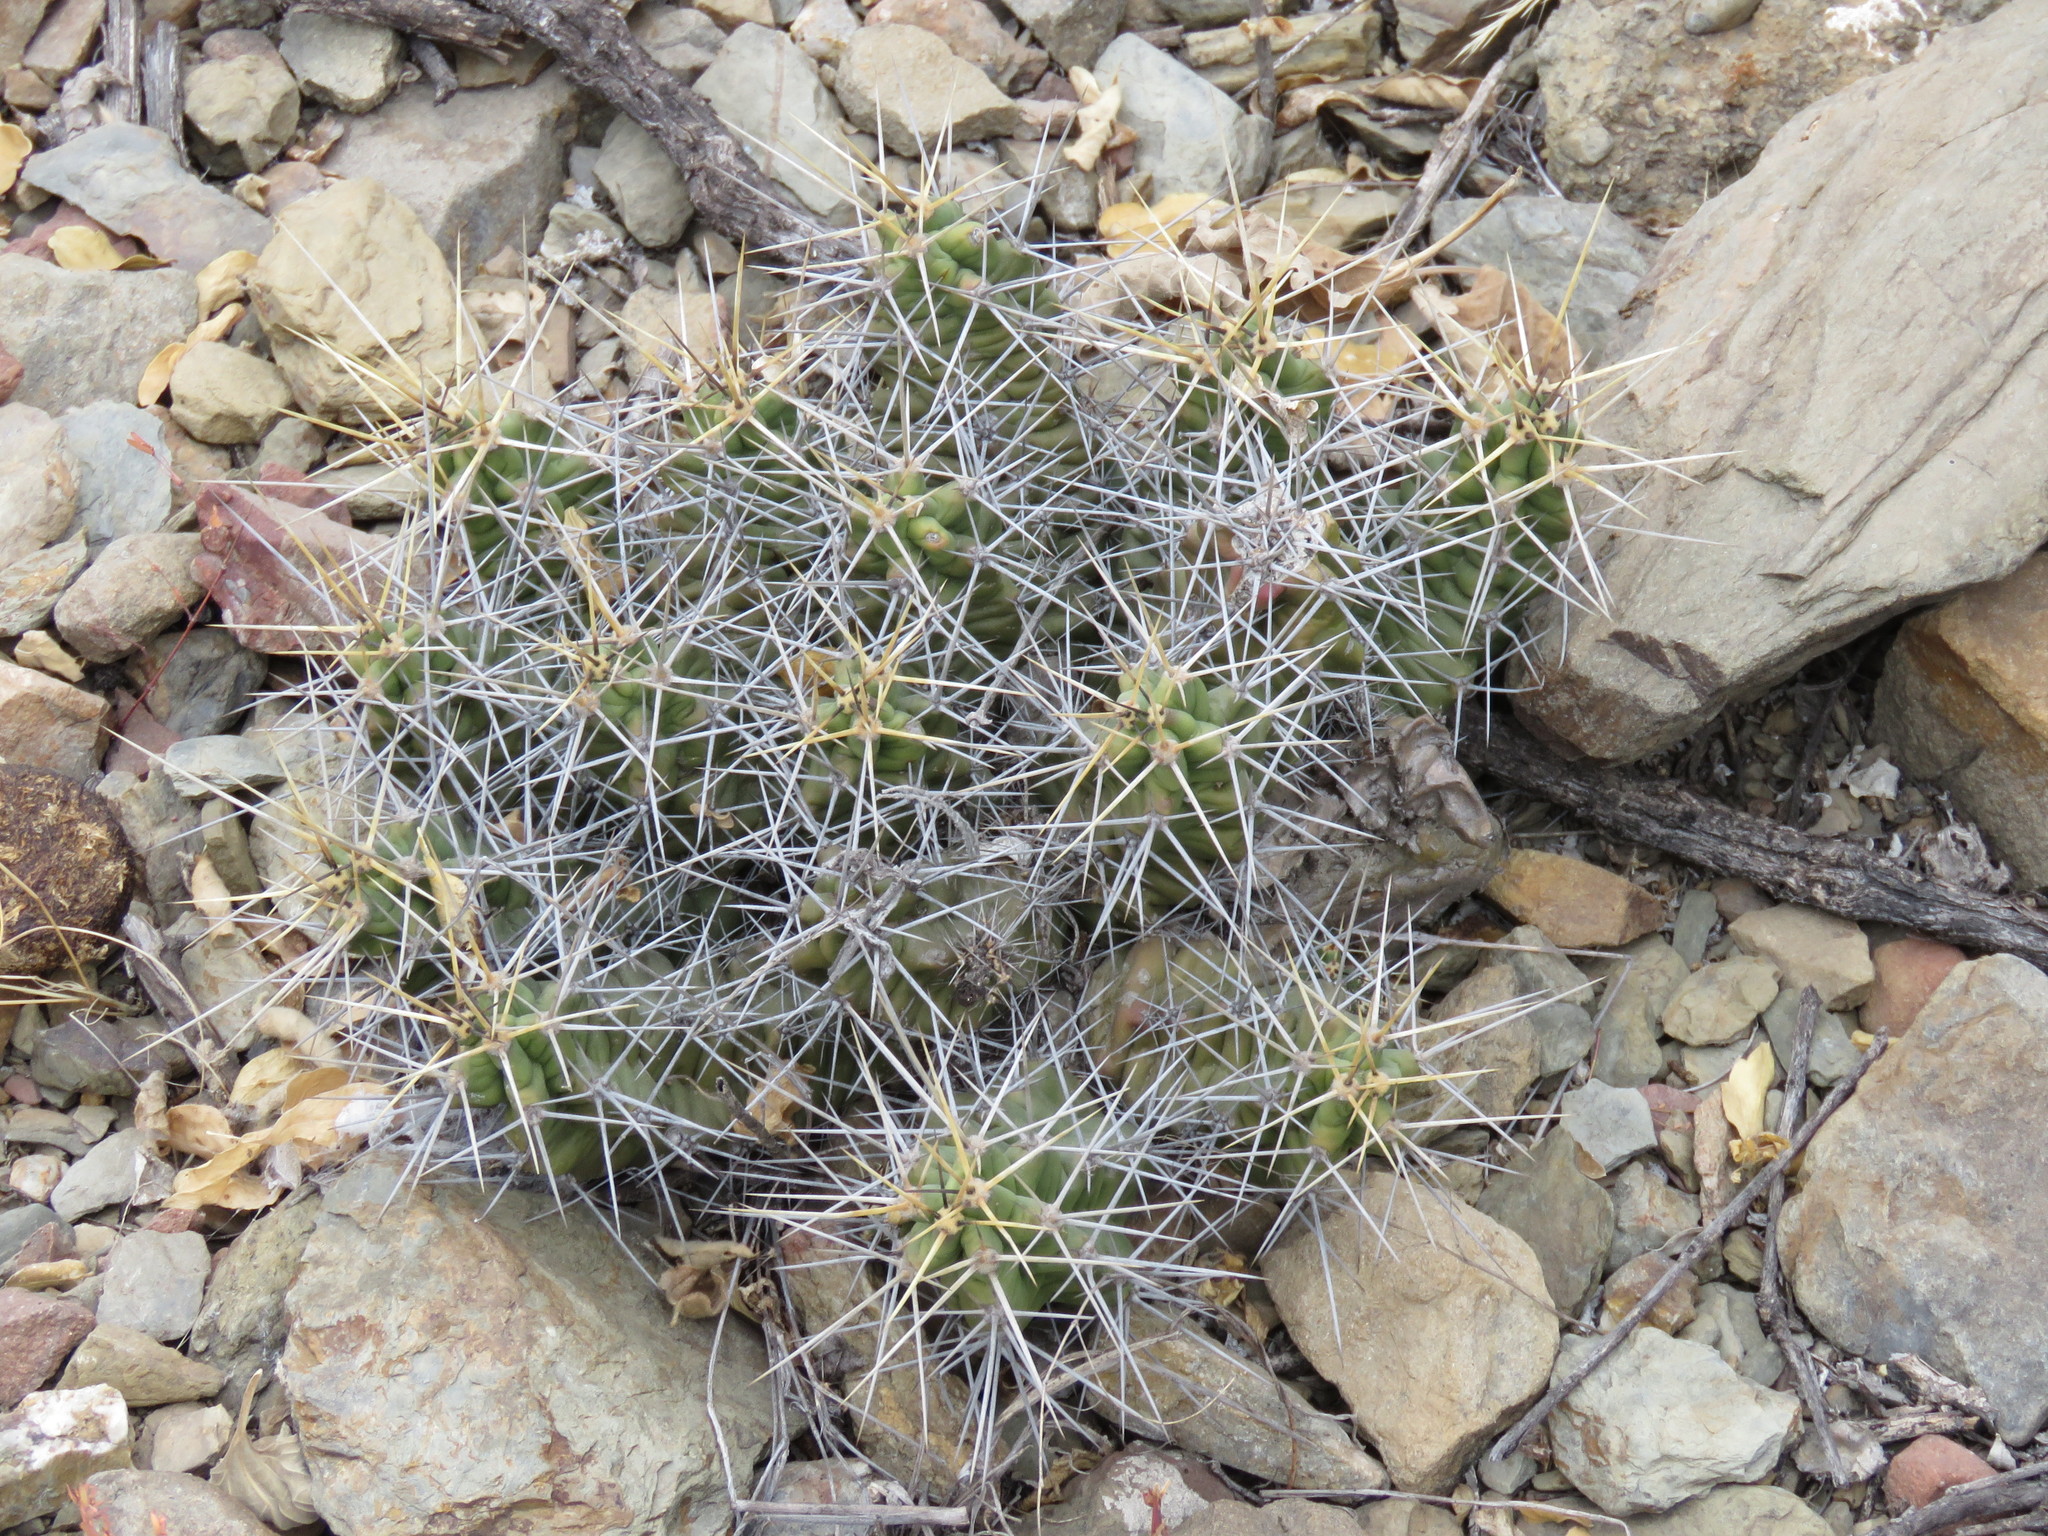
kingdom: Plantae
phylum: Tracheophyta
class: Magnoliopsida
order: Caryophyllales
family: Cactaceae
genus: Echinocereus
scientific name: Echinocereus pentalophus
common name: Ladyfinger cactus
